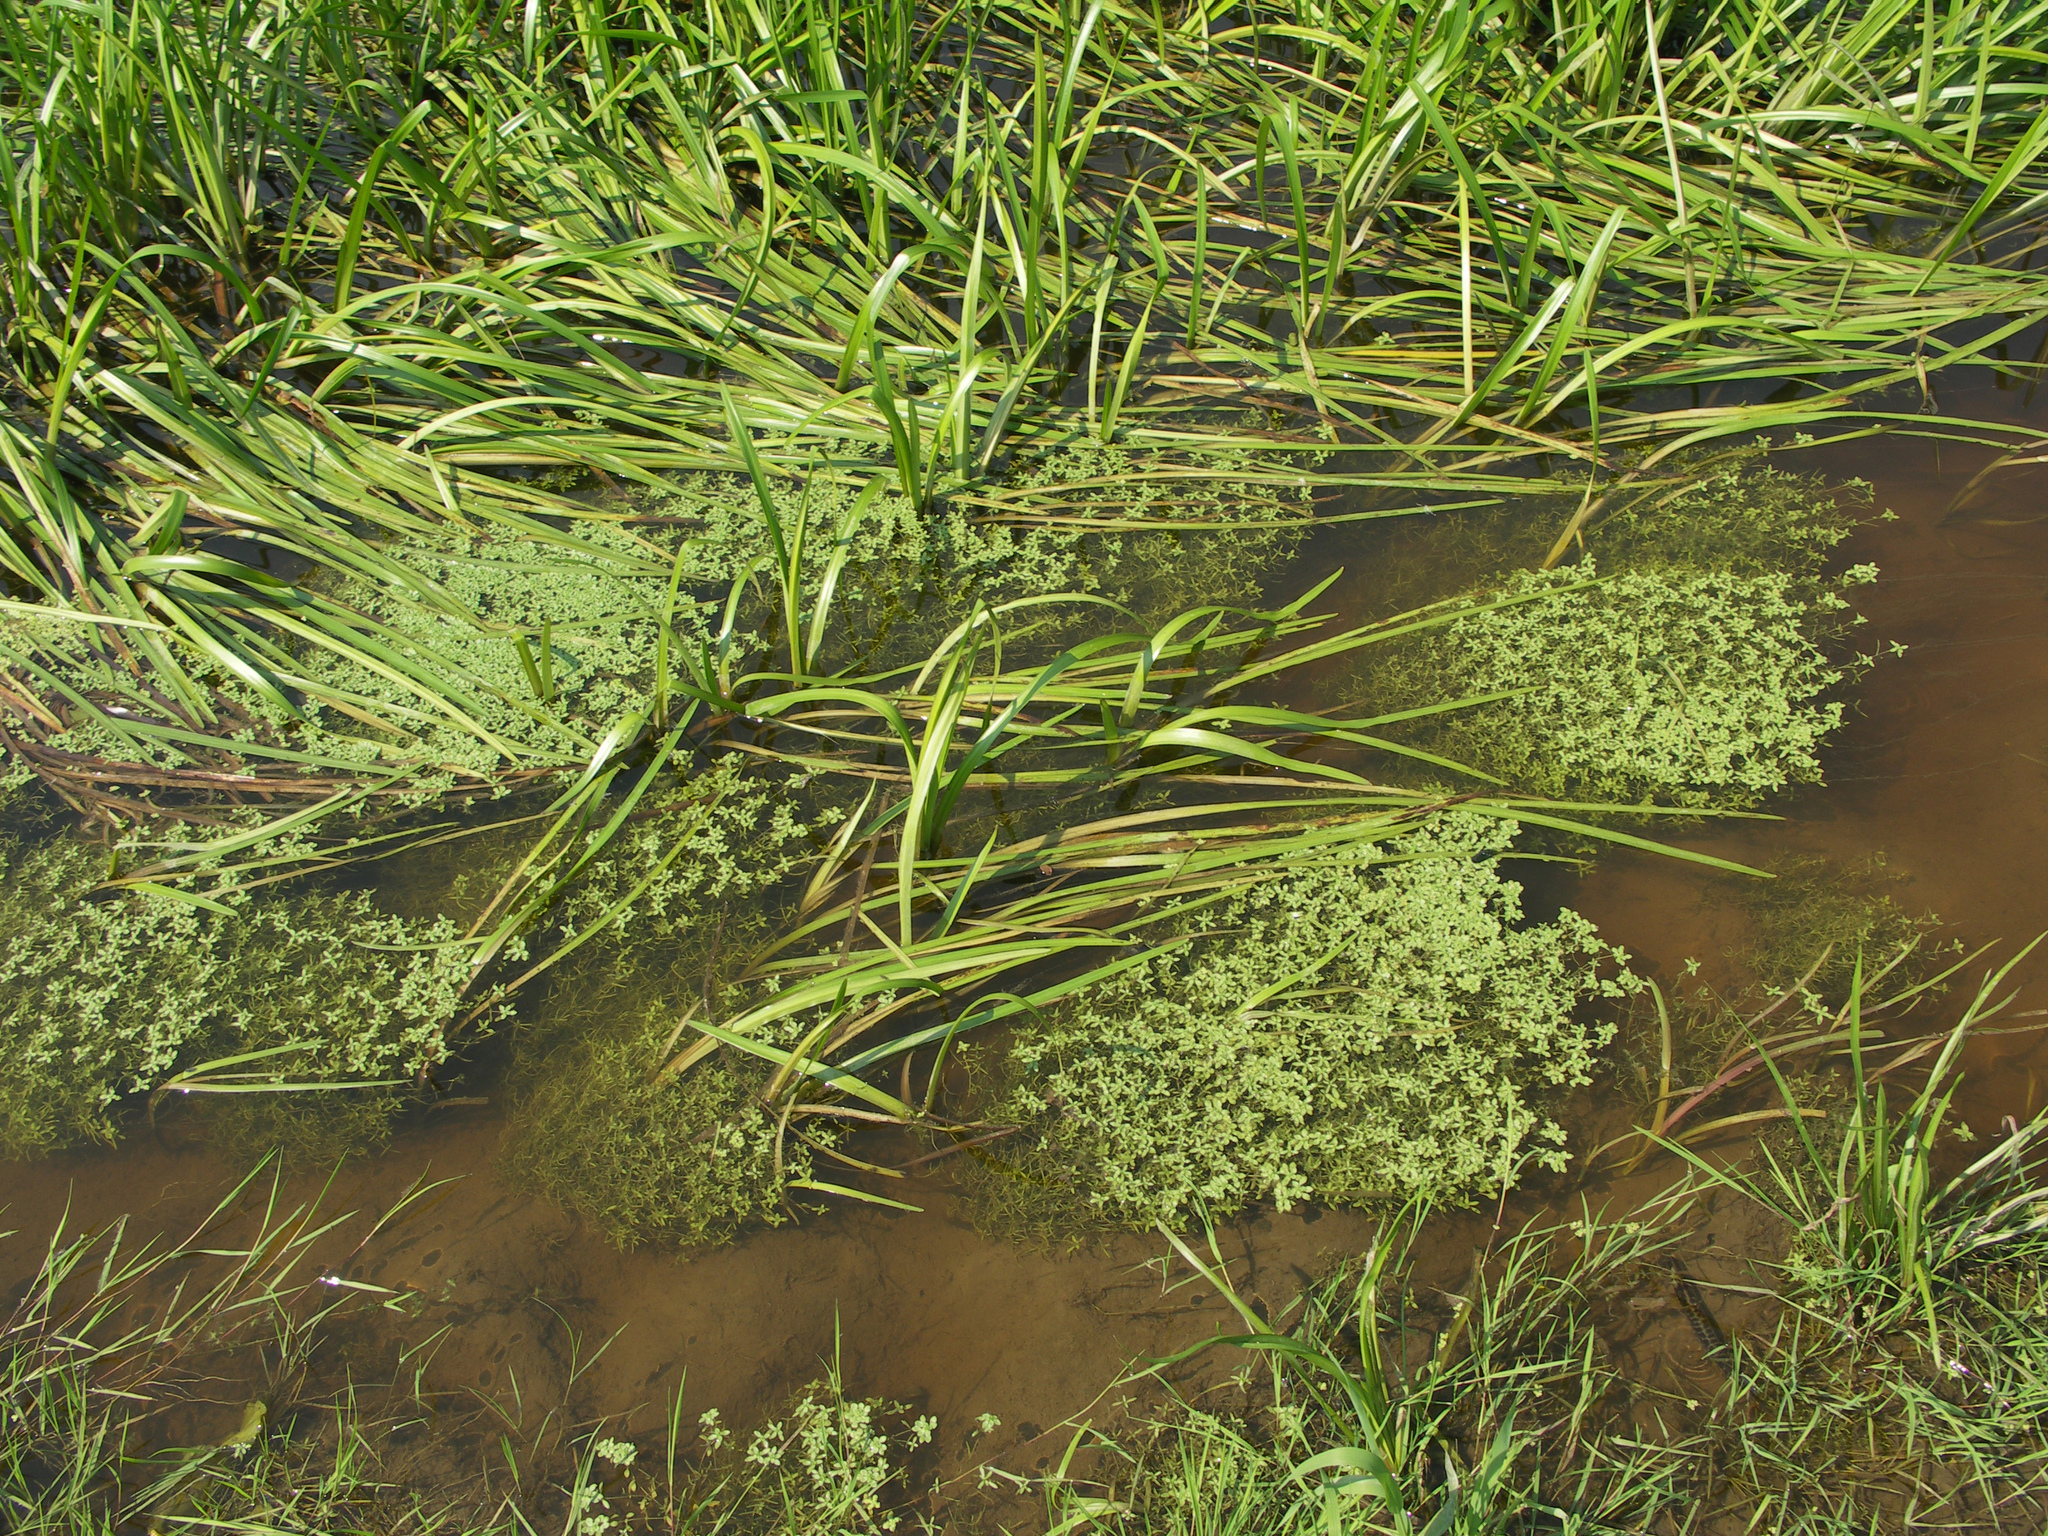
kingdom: Plantae
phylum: Tracheophyta
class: Magnoliopsida
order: Lamiales
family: Plantaginaceae
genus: Callitriche
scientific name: Callitriche palustris
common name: Spring water-starwort
